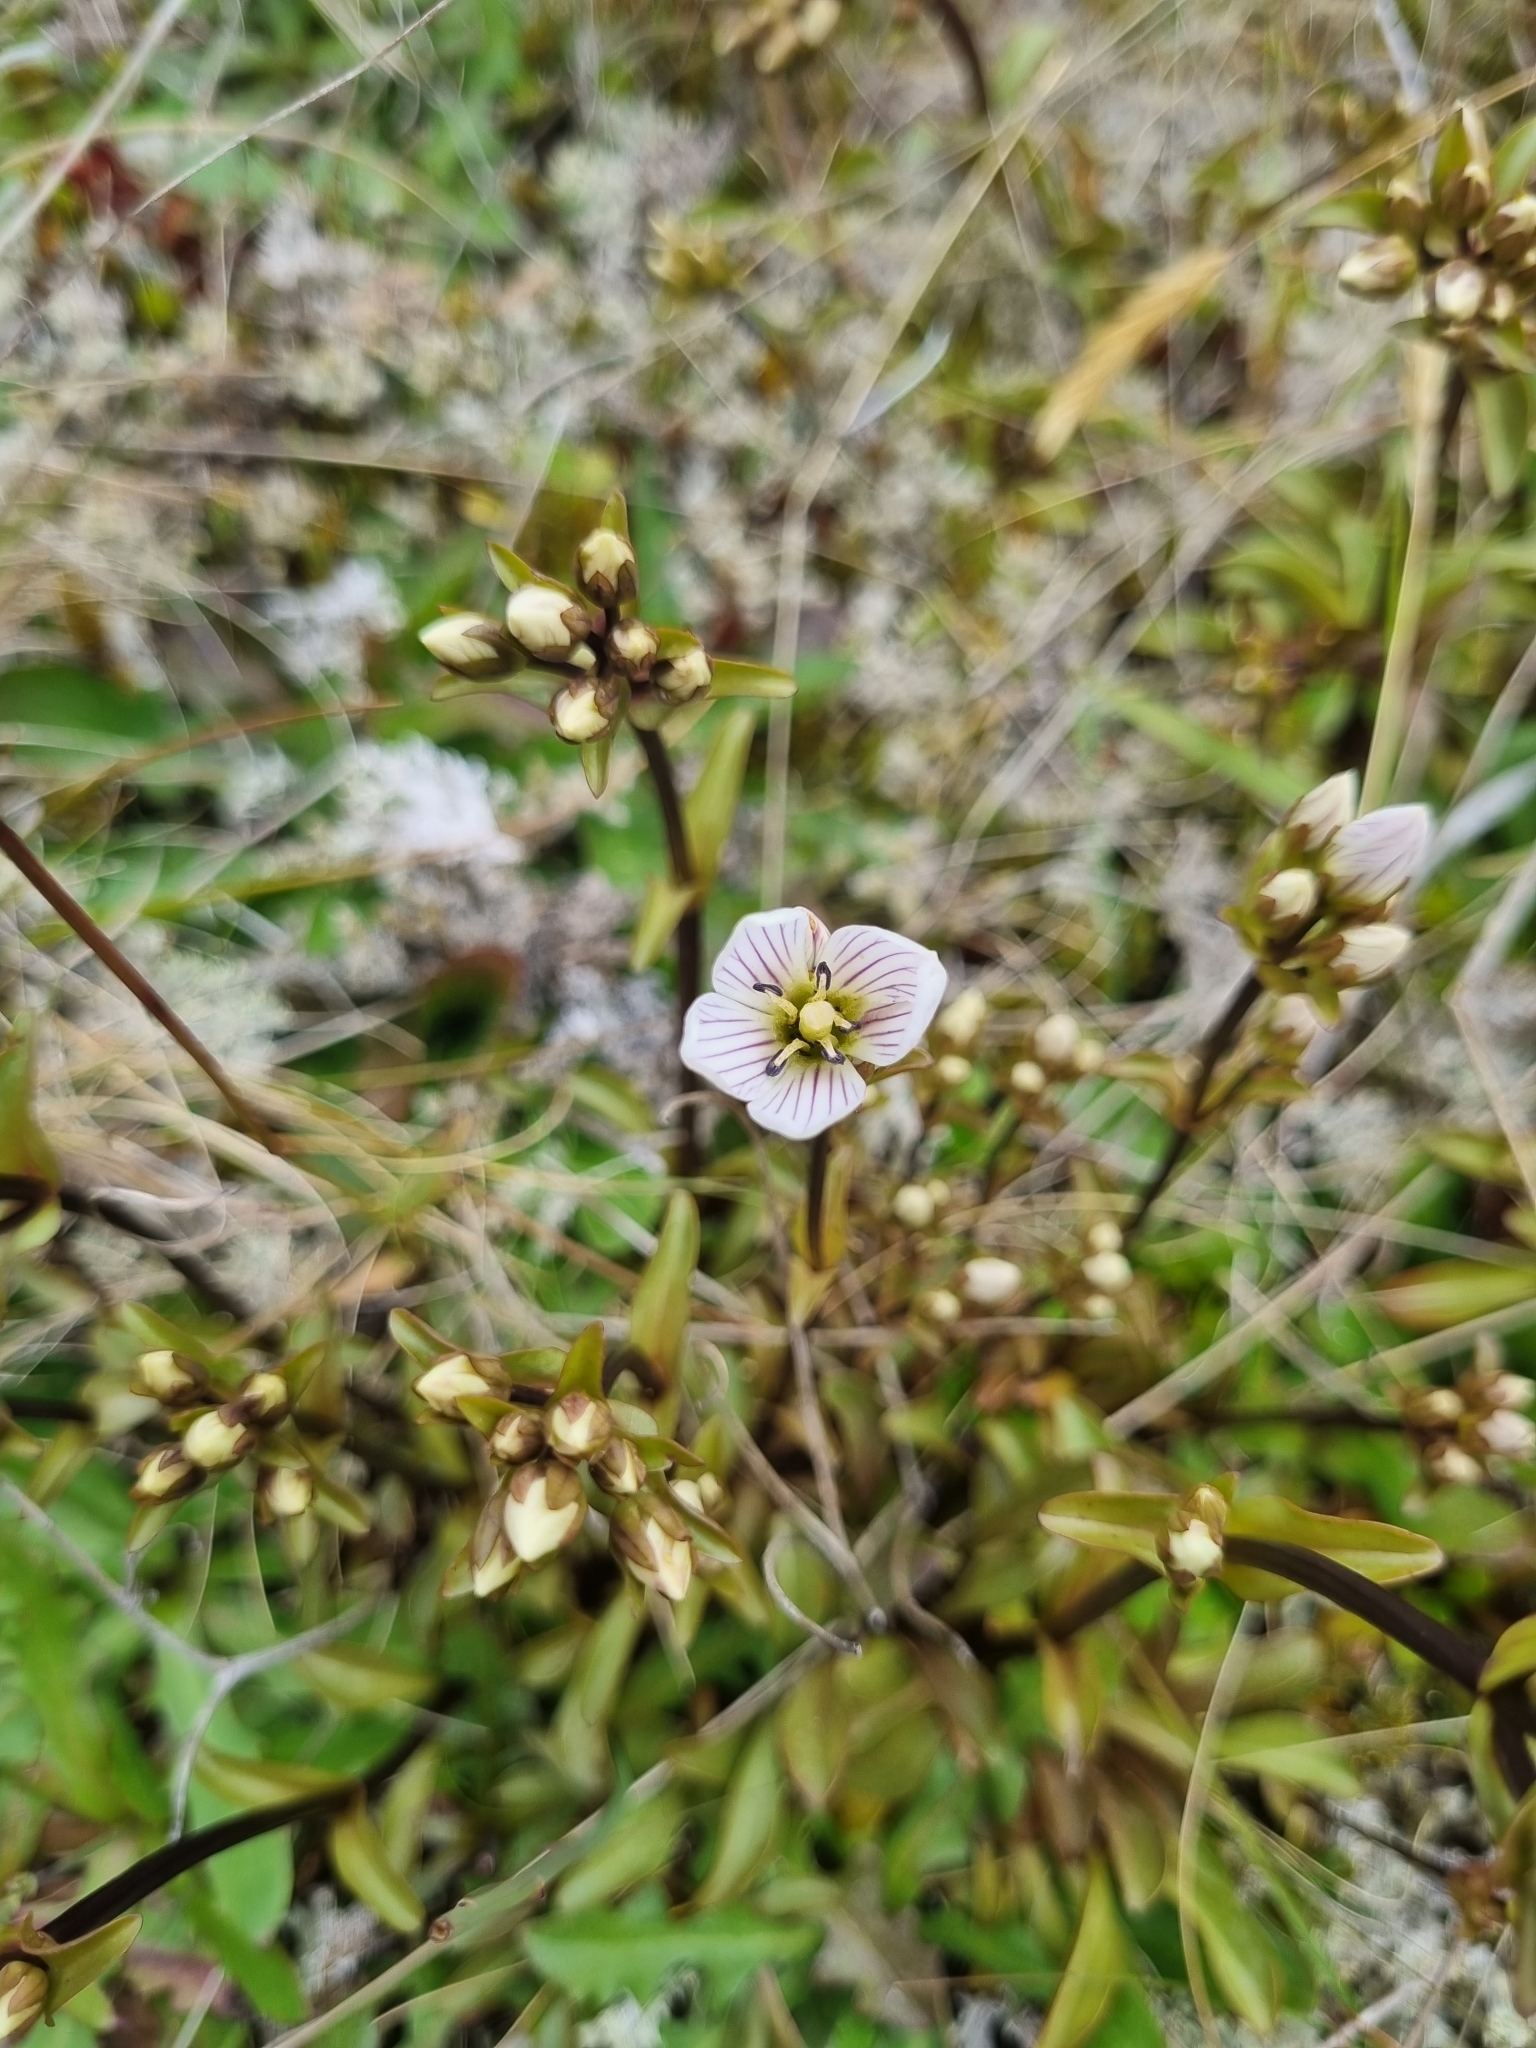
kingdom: Plantae
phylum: Tracheophyta
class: Magnoliopsida
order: Gentianales
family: Gentianaceae
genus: Gentianella
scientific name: Gentianella bellidifolia
